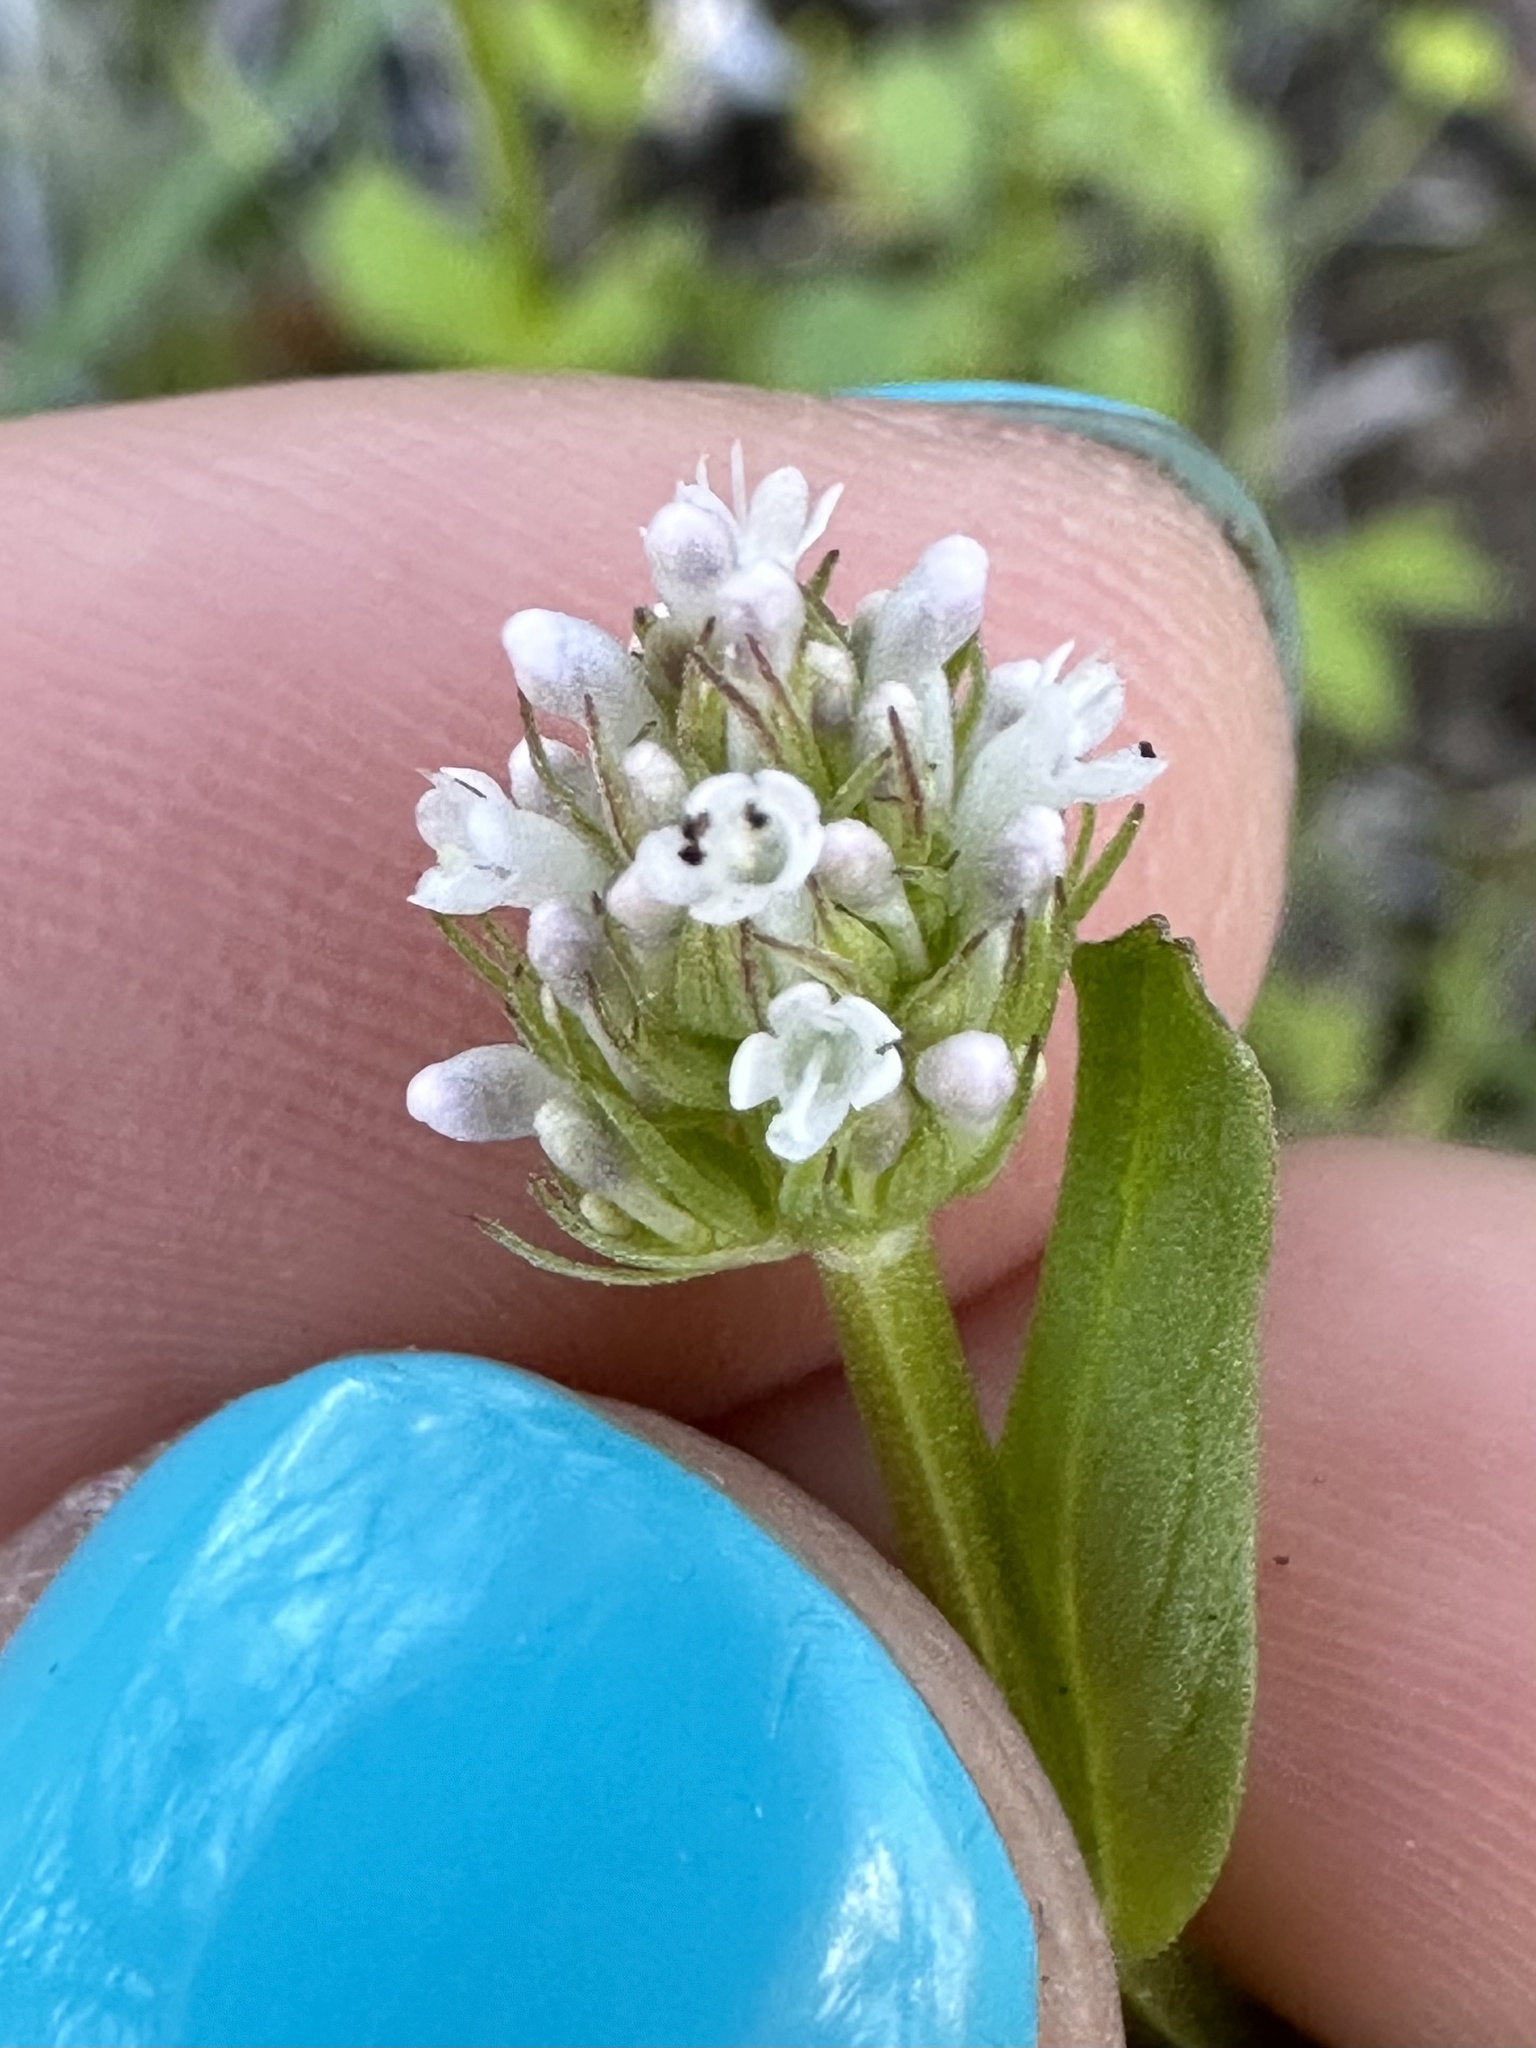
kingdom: Plantae
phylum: Tracheophyta
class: Magnoliopsida
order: Dipsacales
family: Caprifoliaceae
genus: Plectritis
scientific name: Plectritis macroptera
